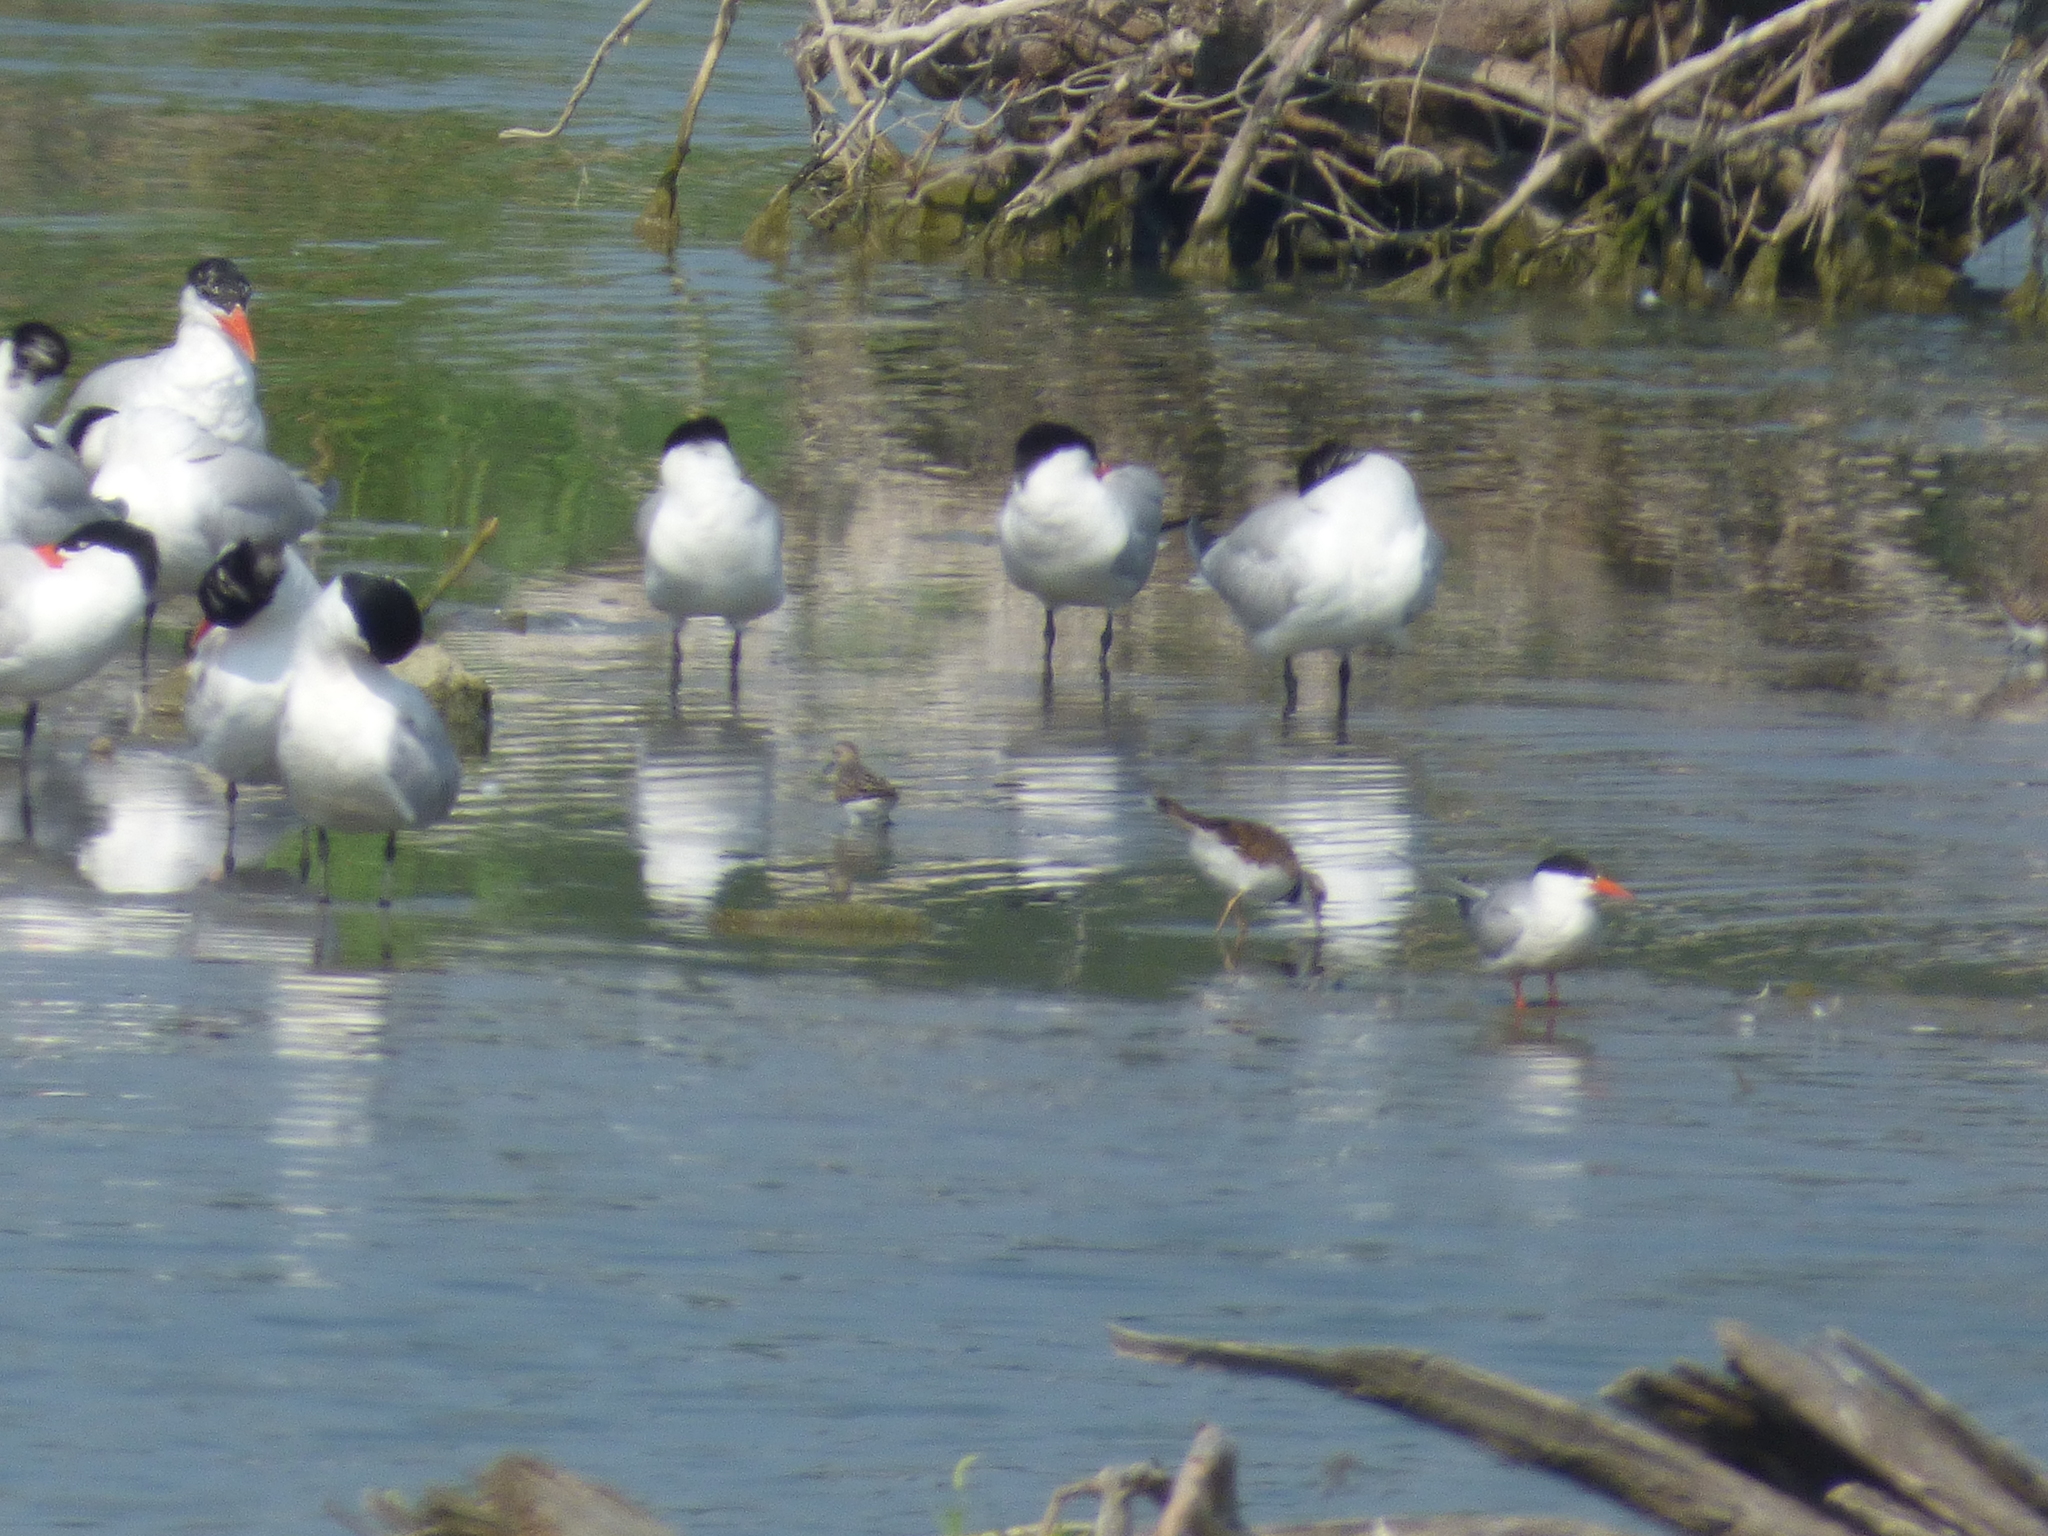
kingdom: Animalia
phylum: Chordata
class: Aves
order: Charadriiformes
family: Laridae
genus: Hydroprogne
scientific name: Hydroprogne caspia
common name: Caspian tern
